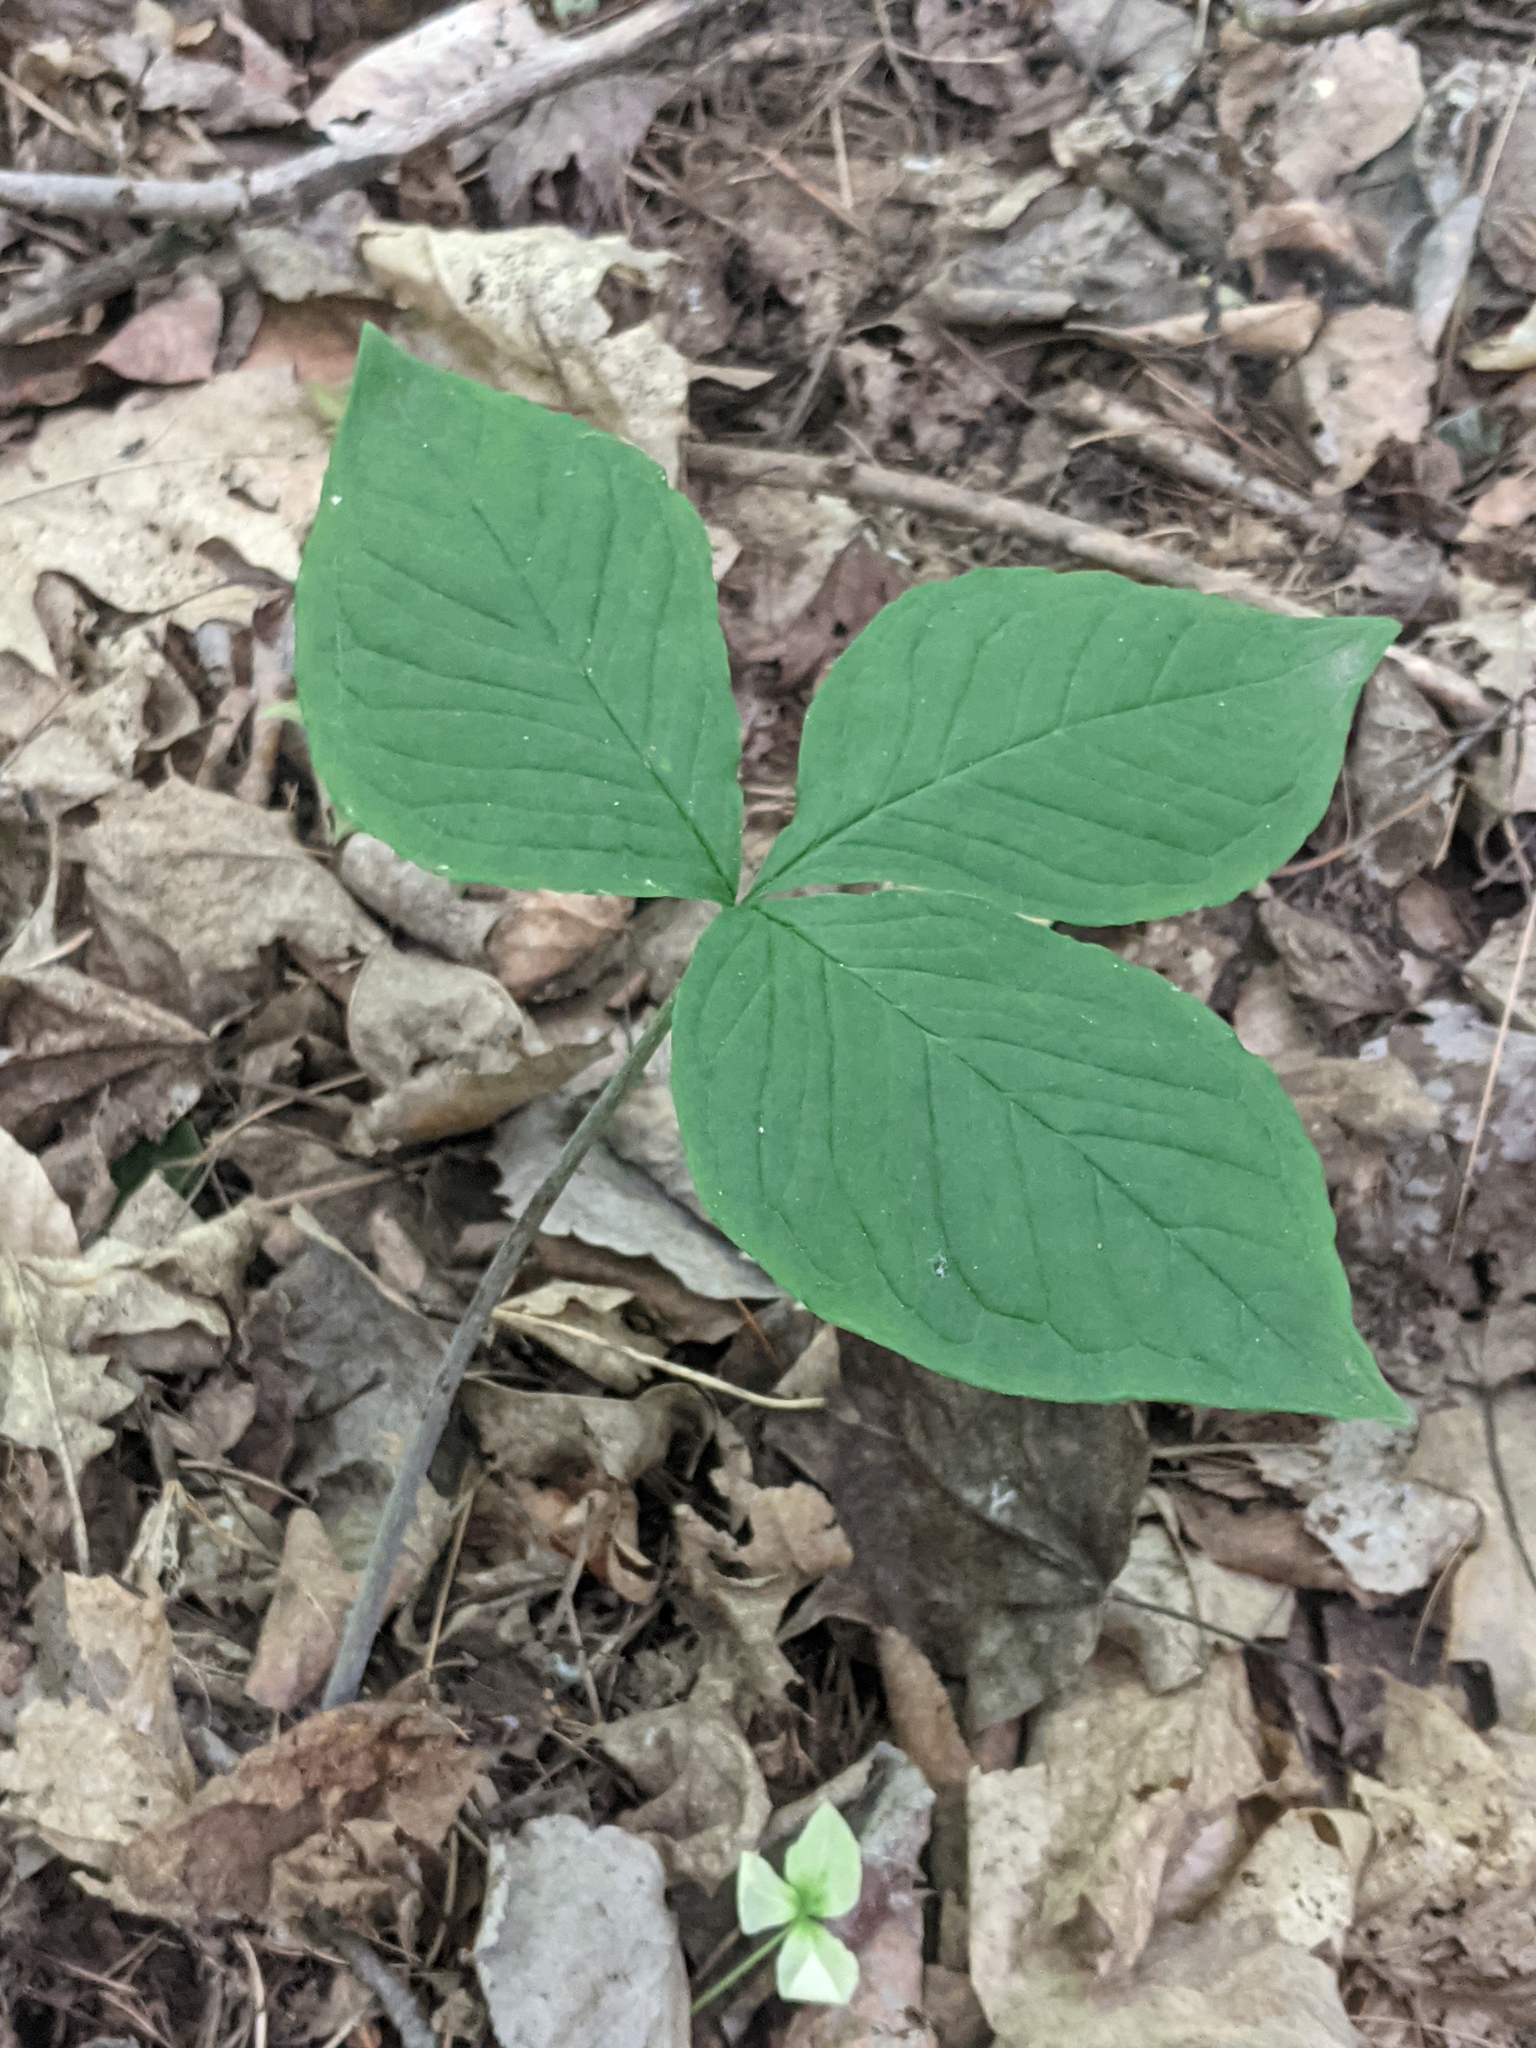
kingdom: Plantae
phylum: Tracheophyta
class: Liliopsida
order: Alismatales
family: Araceae
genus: Arisaema
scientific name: Arisaema triphyllum
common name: Jack-in-the-pulpit
